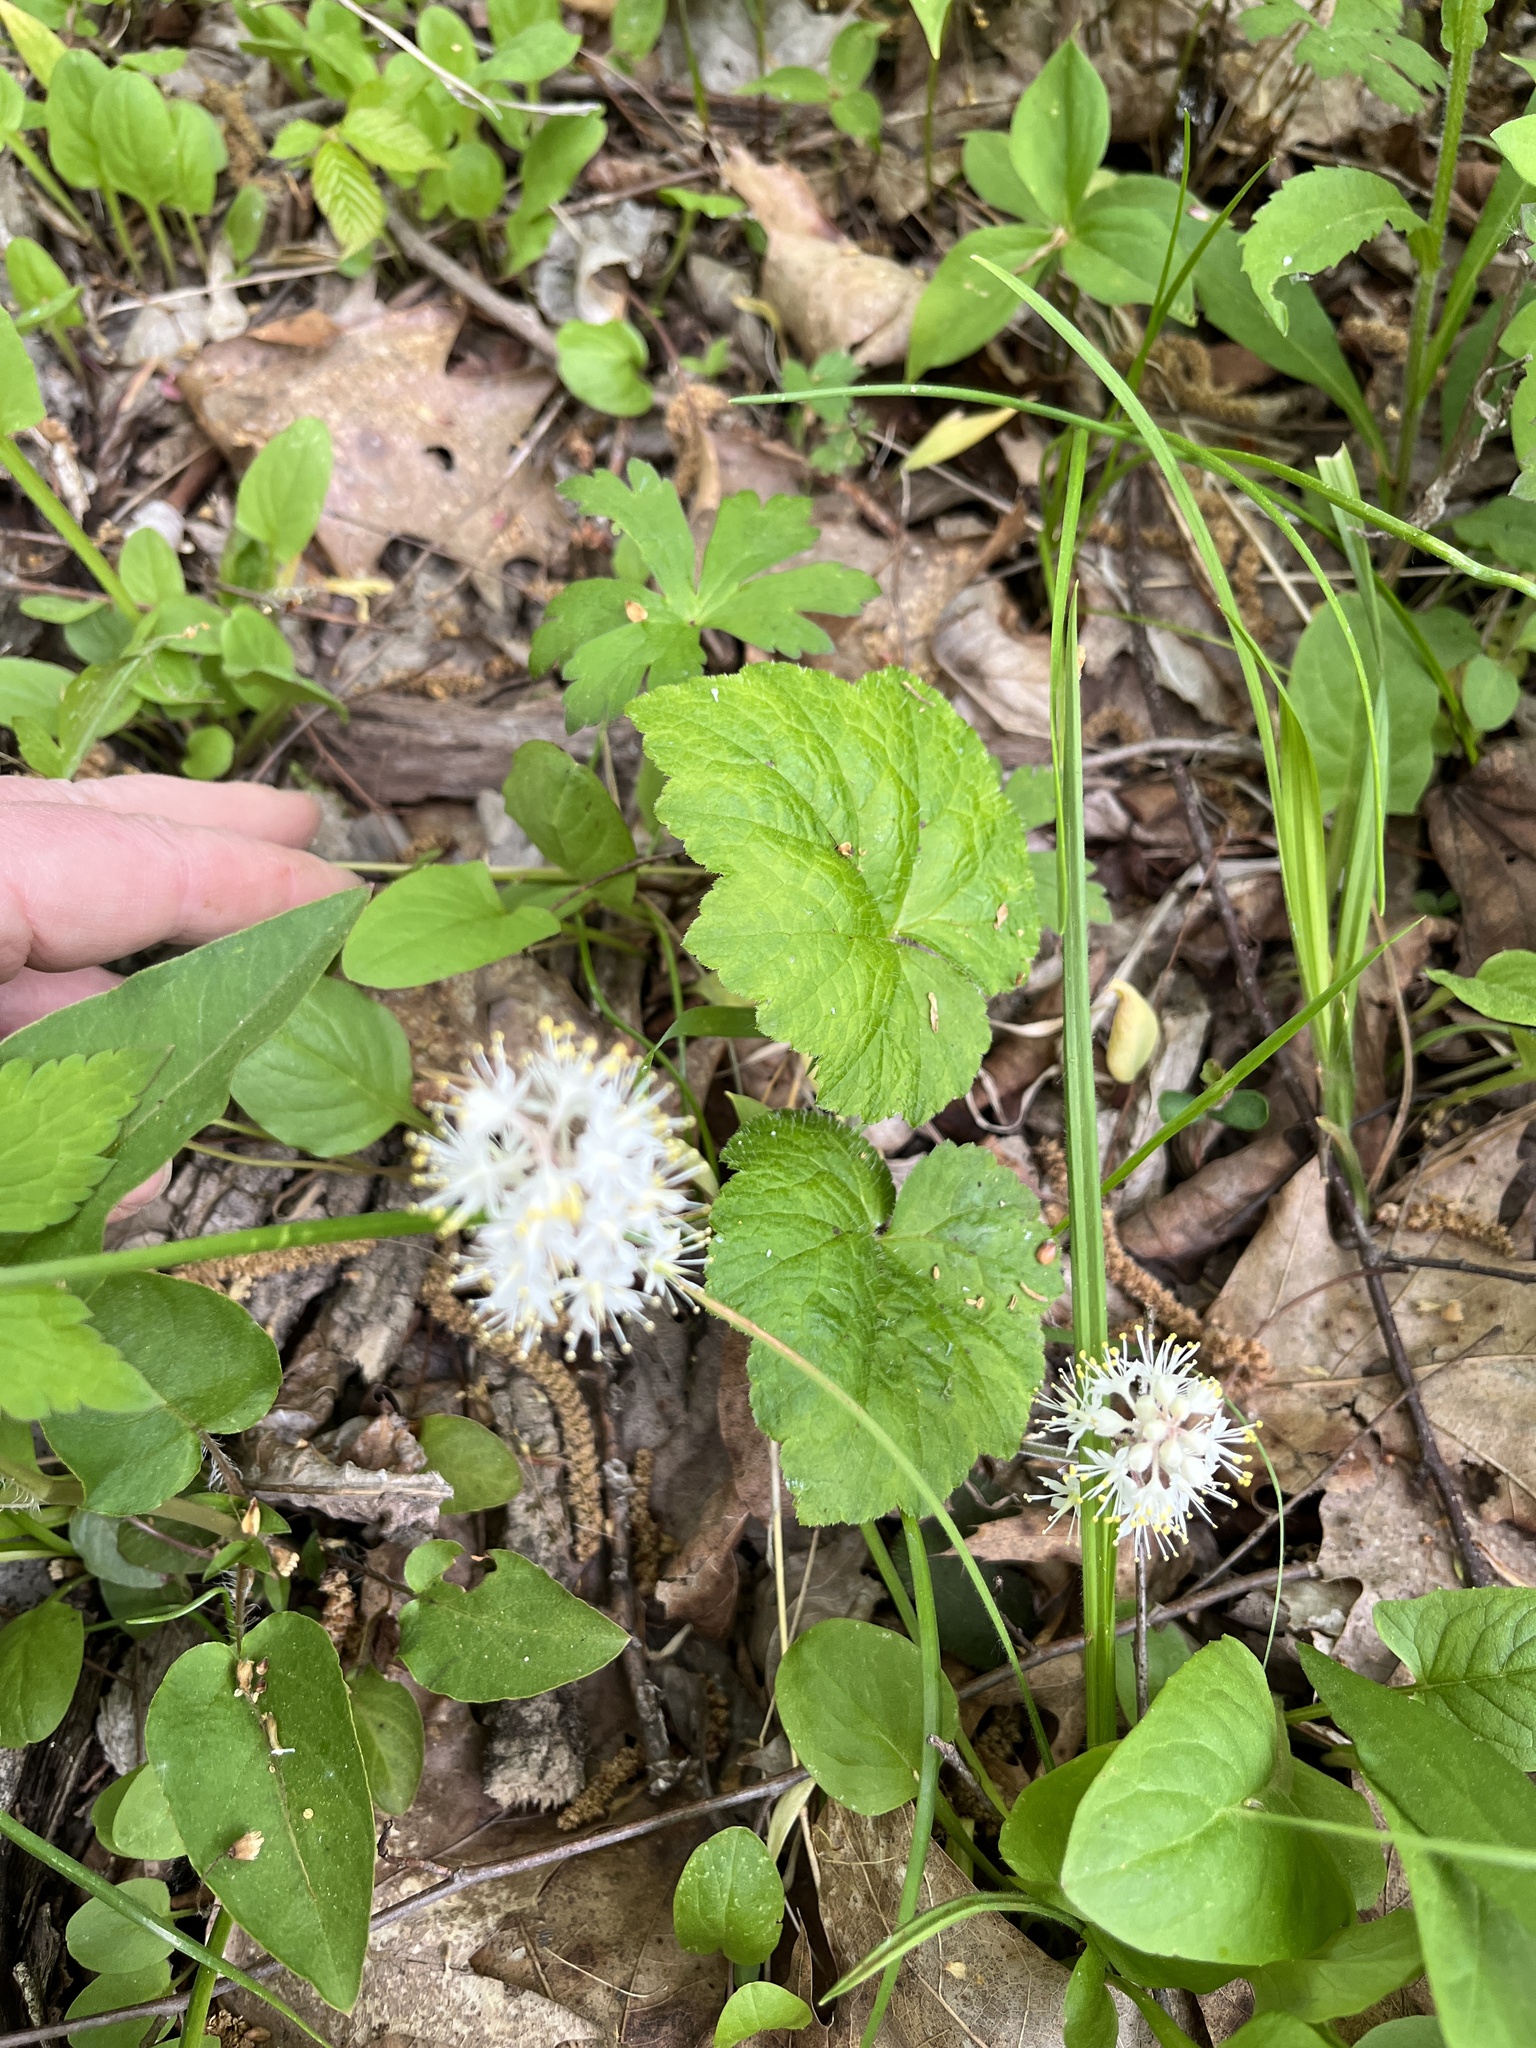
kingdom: Plantae
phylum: Tracheophyta
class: Magnoliopsida
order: Saxifragales
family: Saxifragaceae
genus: Tiarella
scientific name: Tiarella stolonifera
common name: Stoloniferous foamflower
